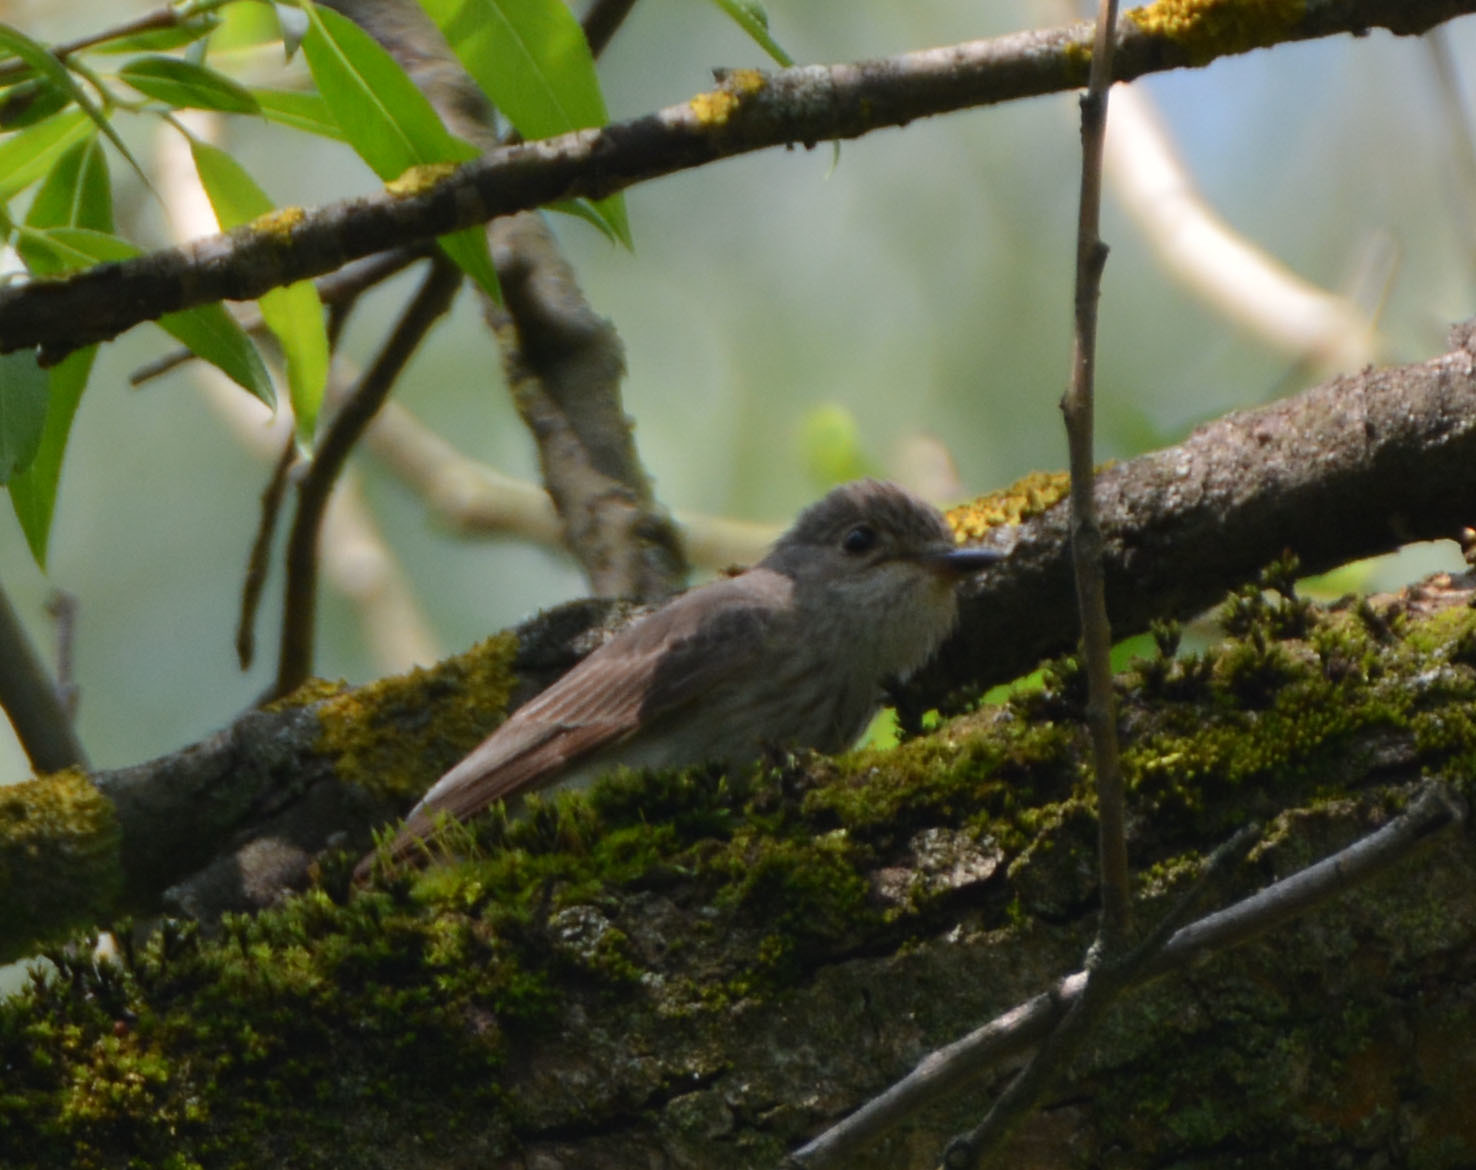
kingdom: Animalia
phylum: Chordata
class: Aves
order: Passeriformes
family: Muscicapidae
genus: Muscicapa
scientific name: Muscicapa striata
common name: Spotted flycatcher
